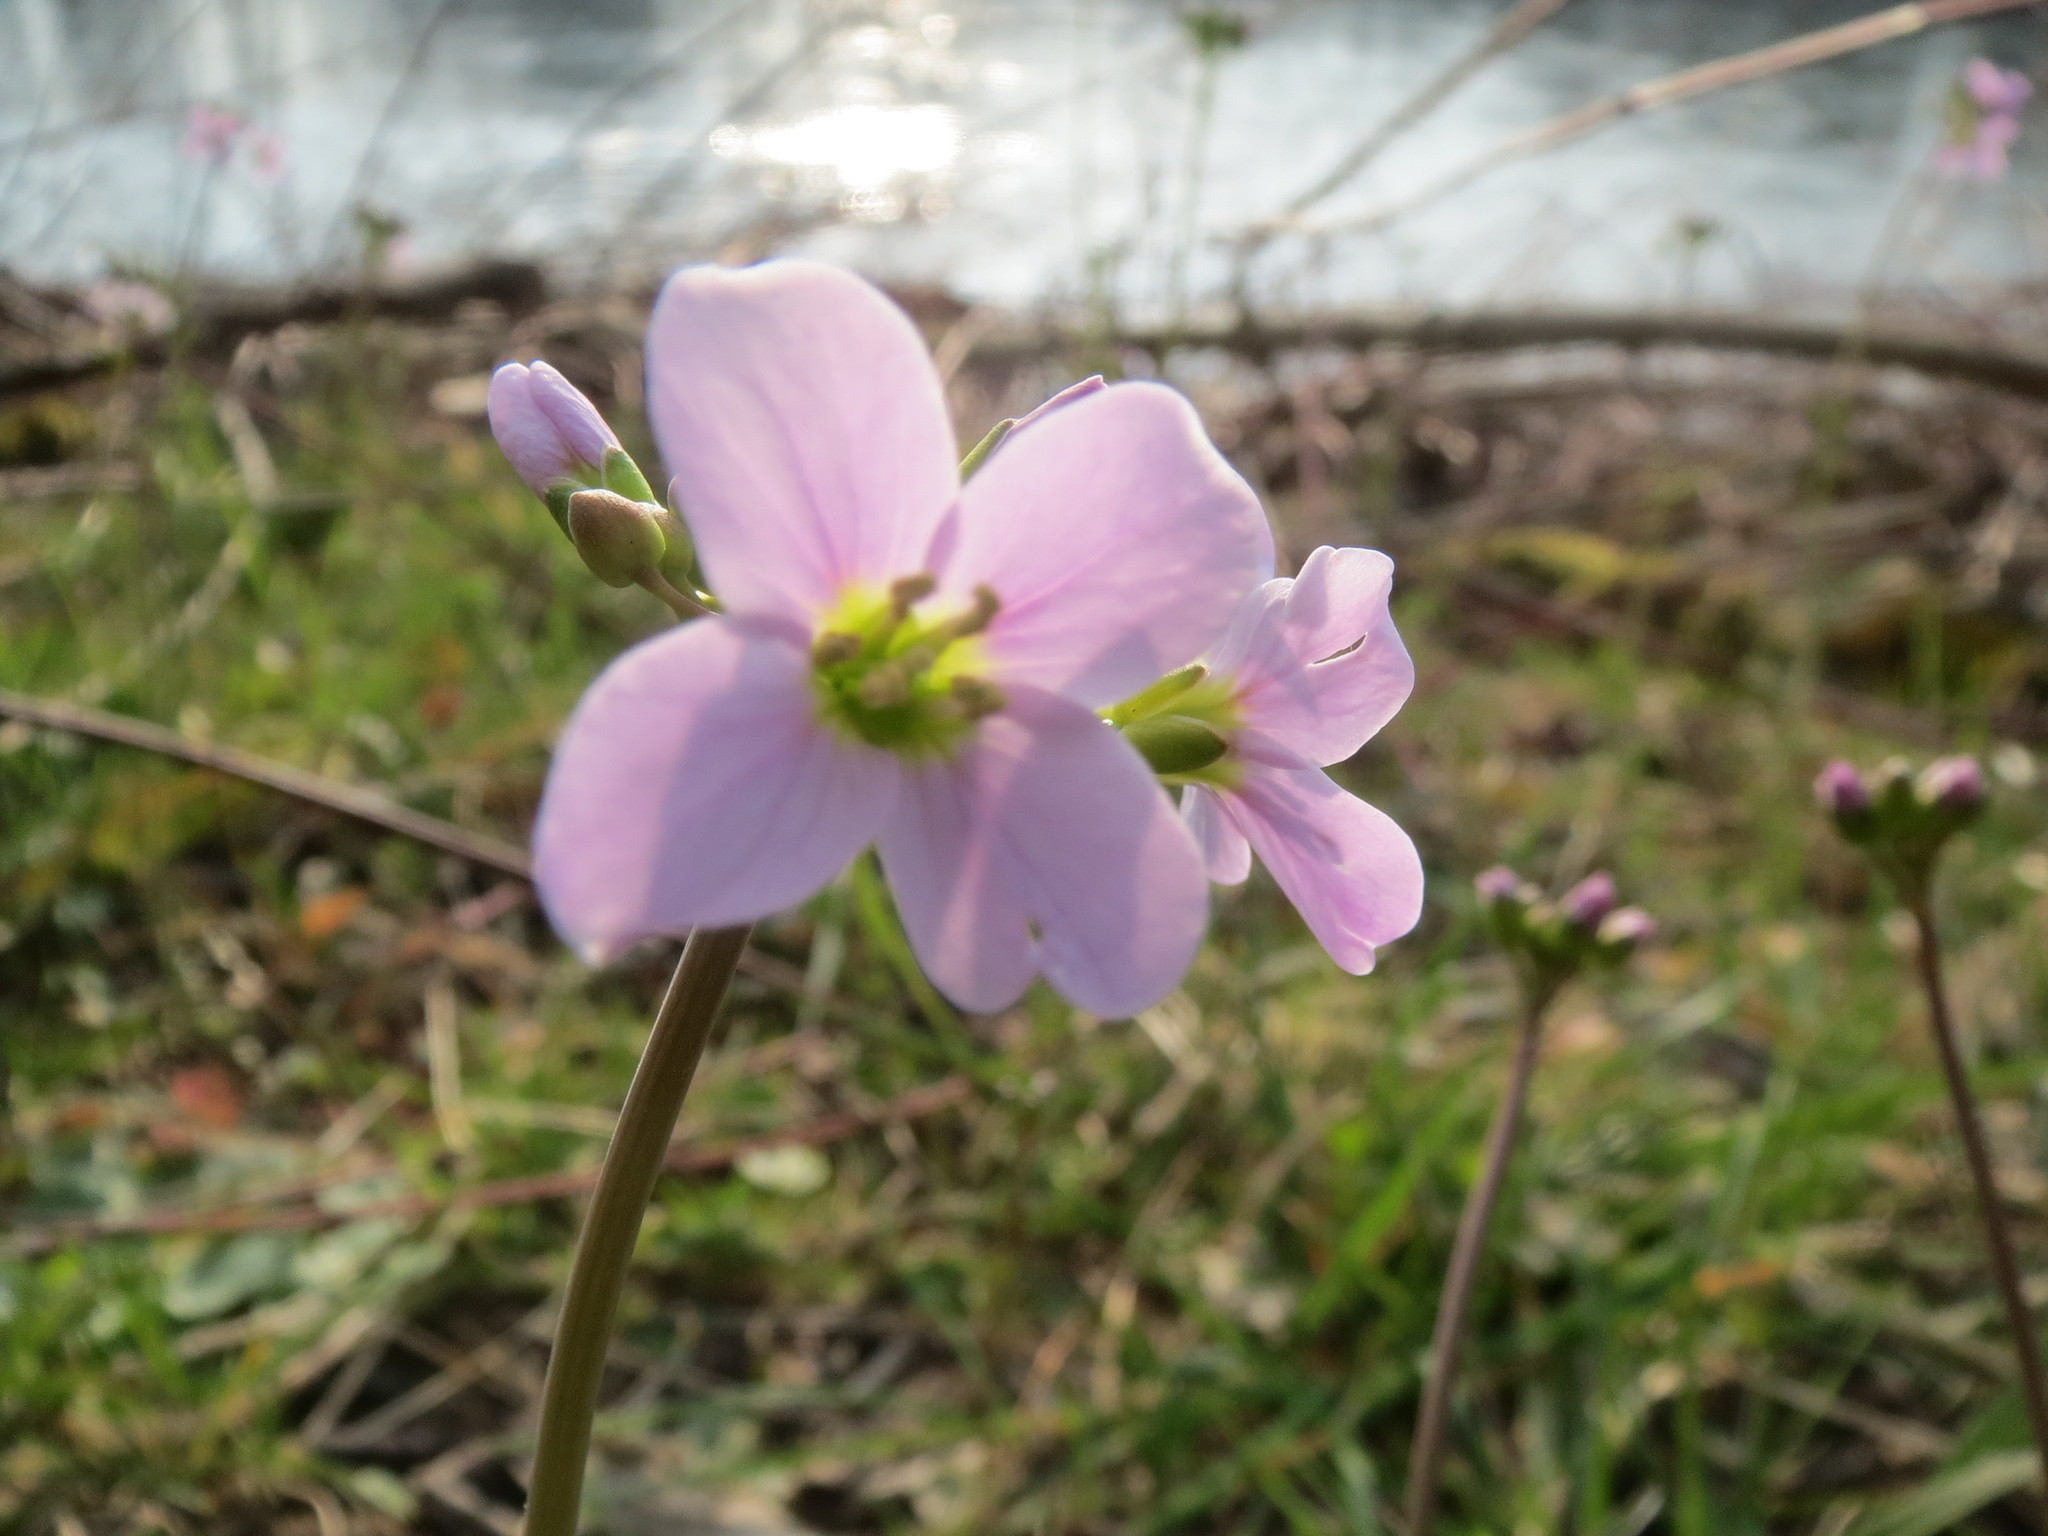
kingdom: Plantae
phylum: Tracheophyta
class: Magnoliopsida
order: Brassicales
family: Brassicaceae
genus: Cardamine
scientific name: Cardamine pratensis
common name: Cuckoo flower
